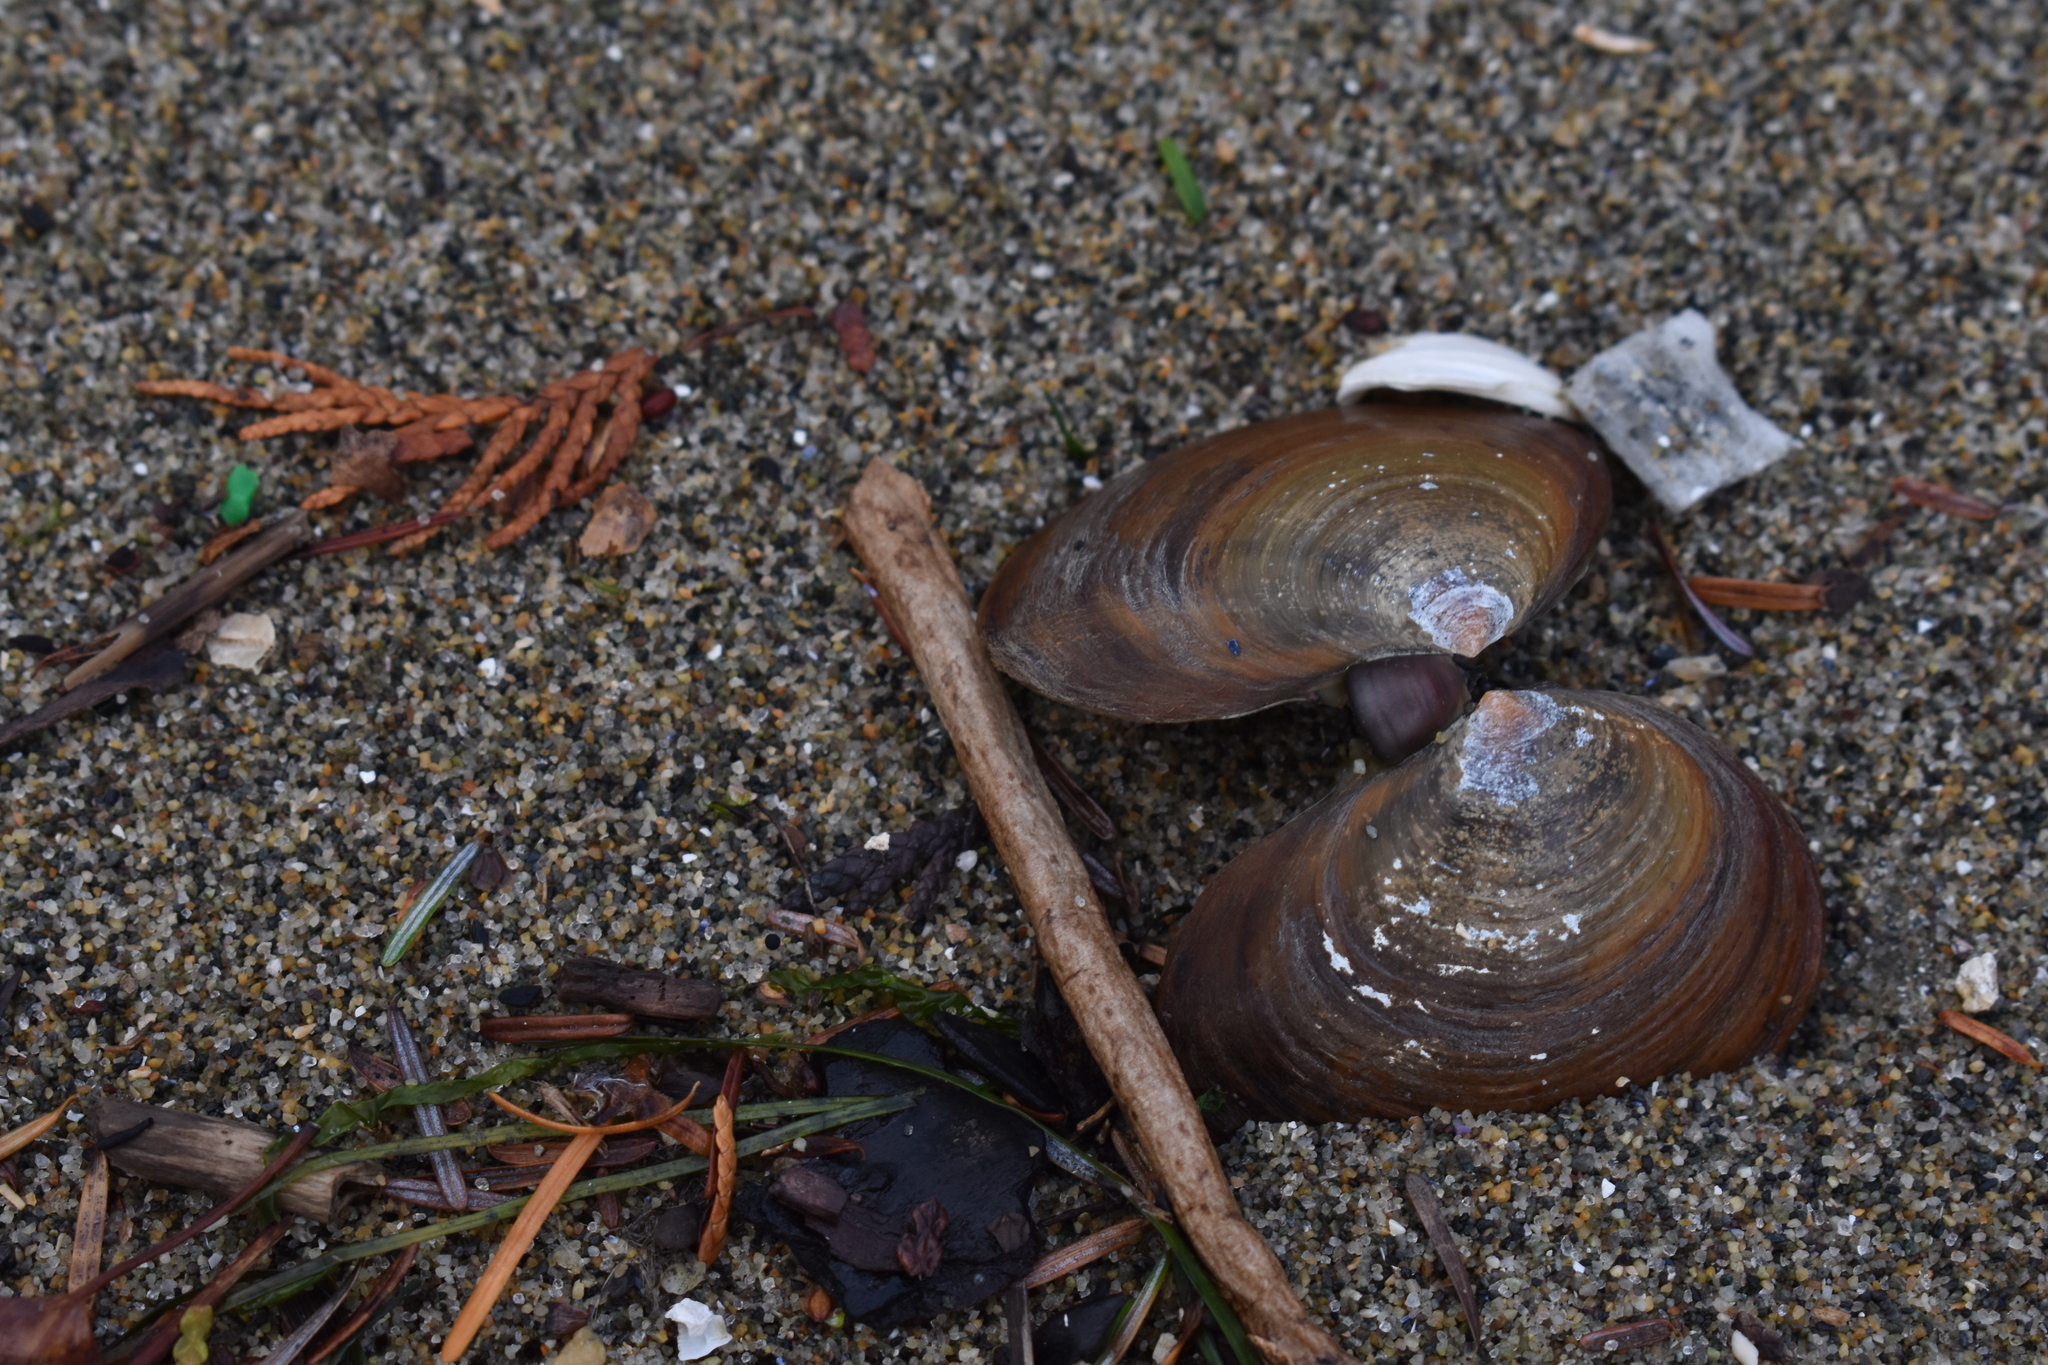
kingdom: Animalia
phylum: Mollusca
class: Bivalvia
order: Cardiida
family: Psammobiidae
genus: Nuttallia
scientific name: Nuttallia obscurata
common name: Purple mahogany-clam
